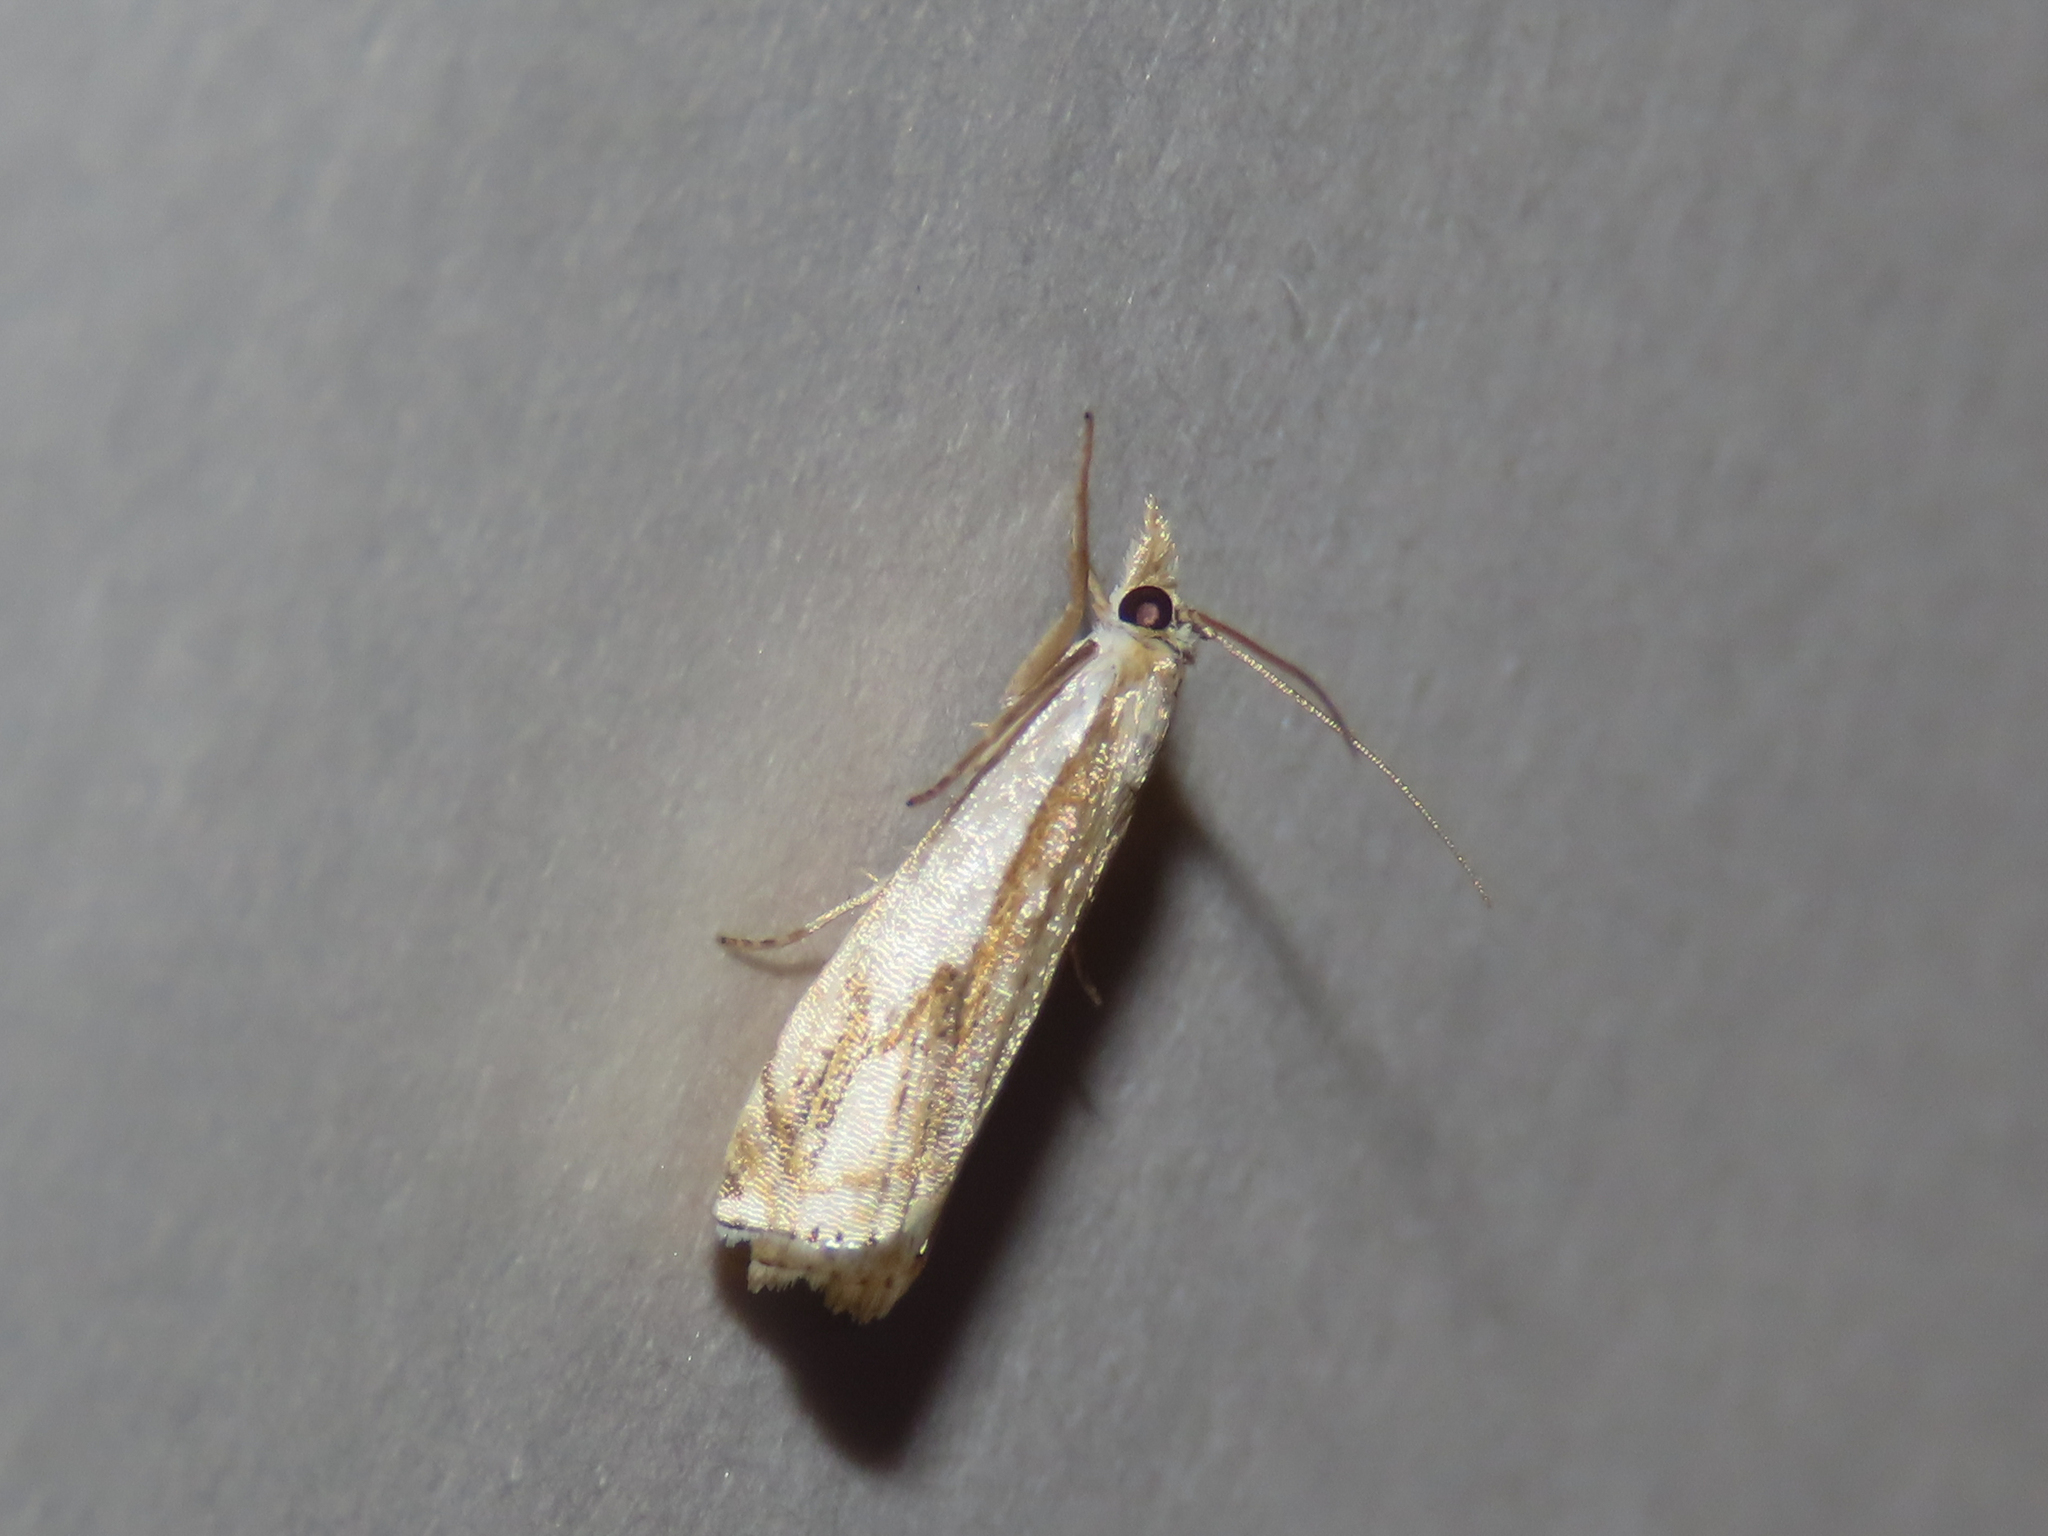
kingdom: Animalia
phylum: Arthropoda
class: Insecta
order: Lepidoptera
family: Crambidae
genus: Crambus
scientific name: Crambus agitatellus
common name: Double-banded grass-veneer
